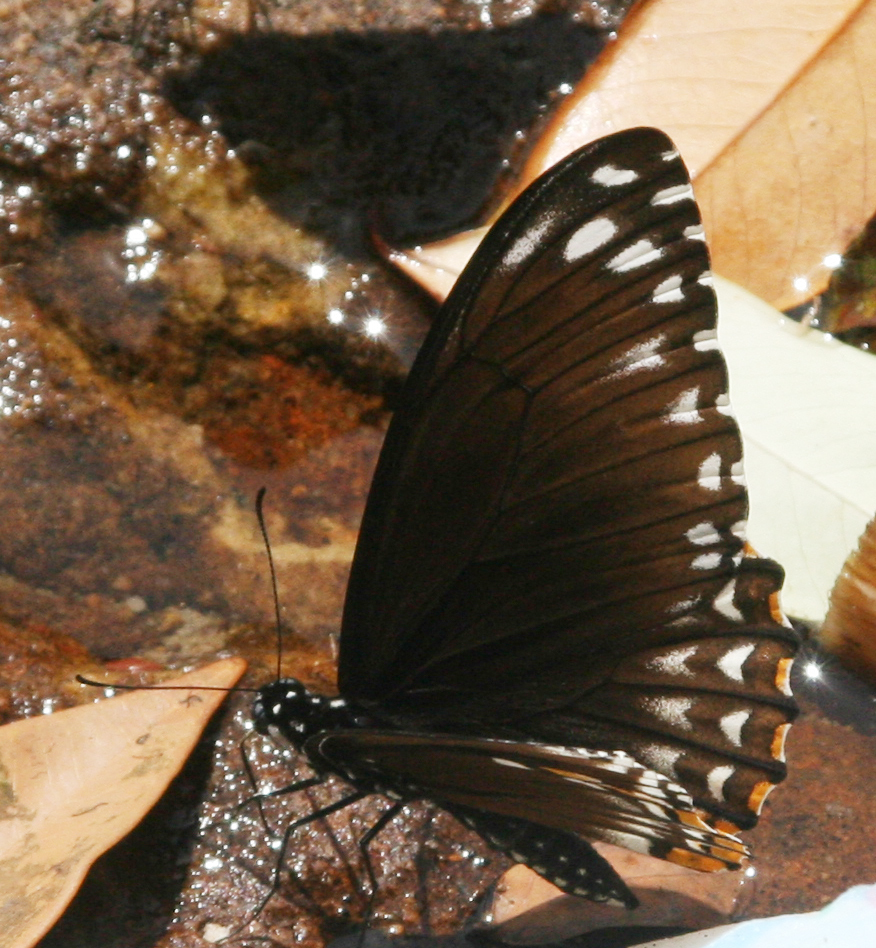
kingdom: Animalia
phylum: Arthropoda
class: Insecta
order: Lepidoptera
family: Papilionidae
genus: Chilasa
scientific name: Chilasa clytia
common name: Common mime
